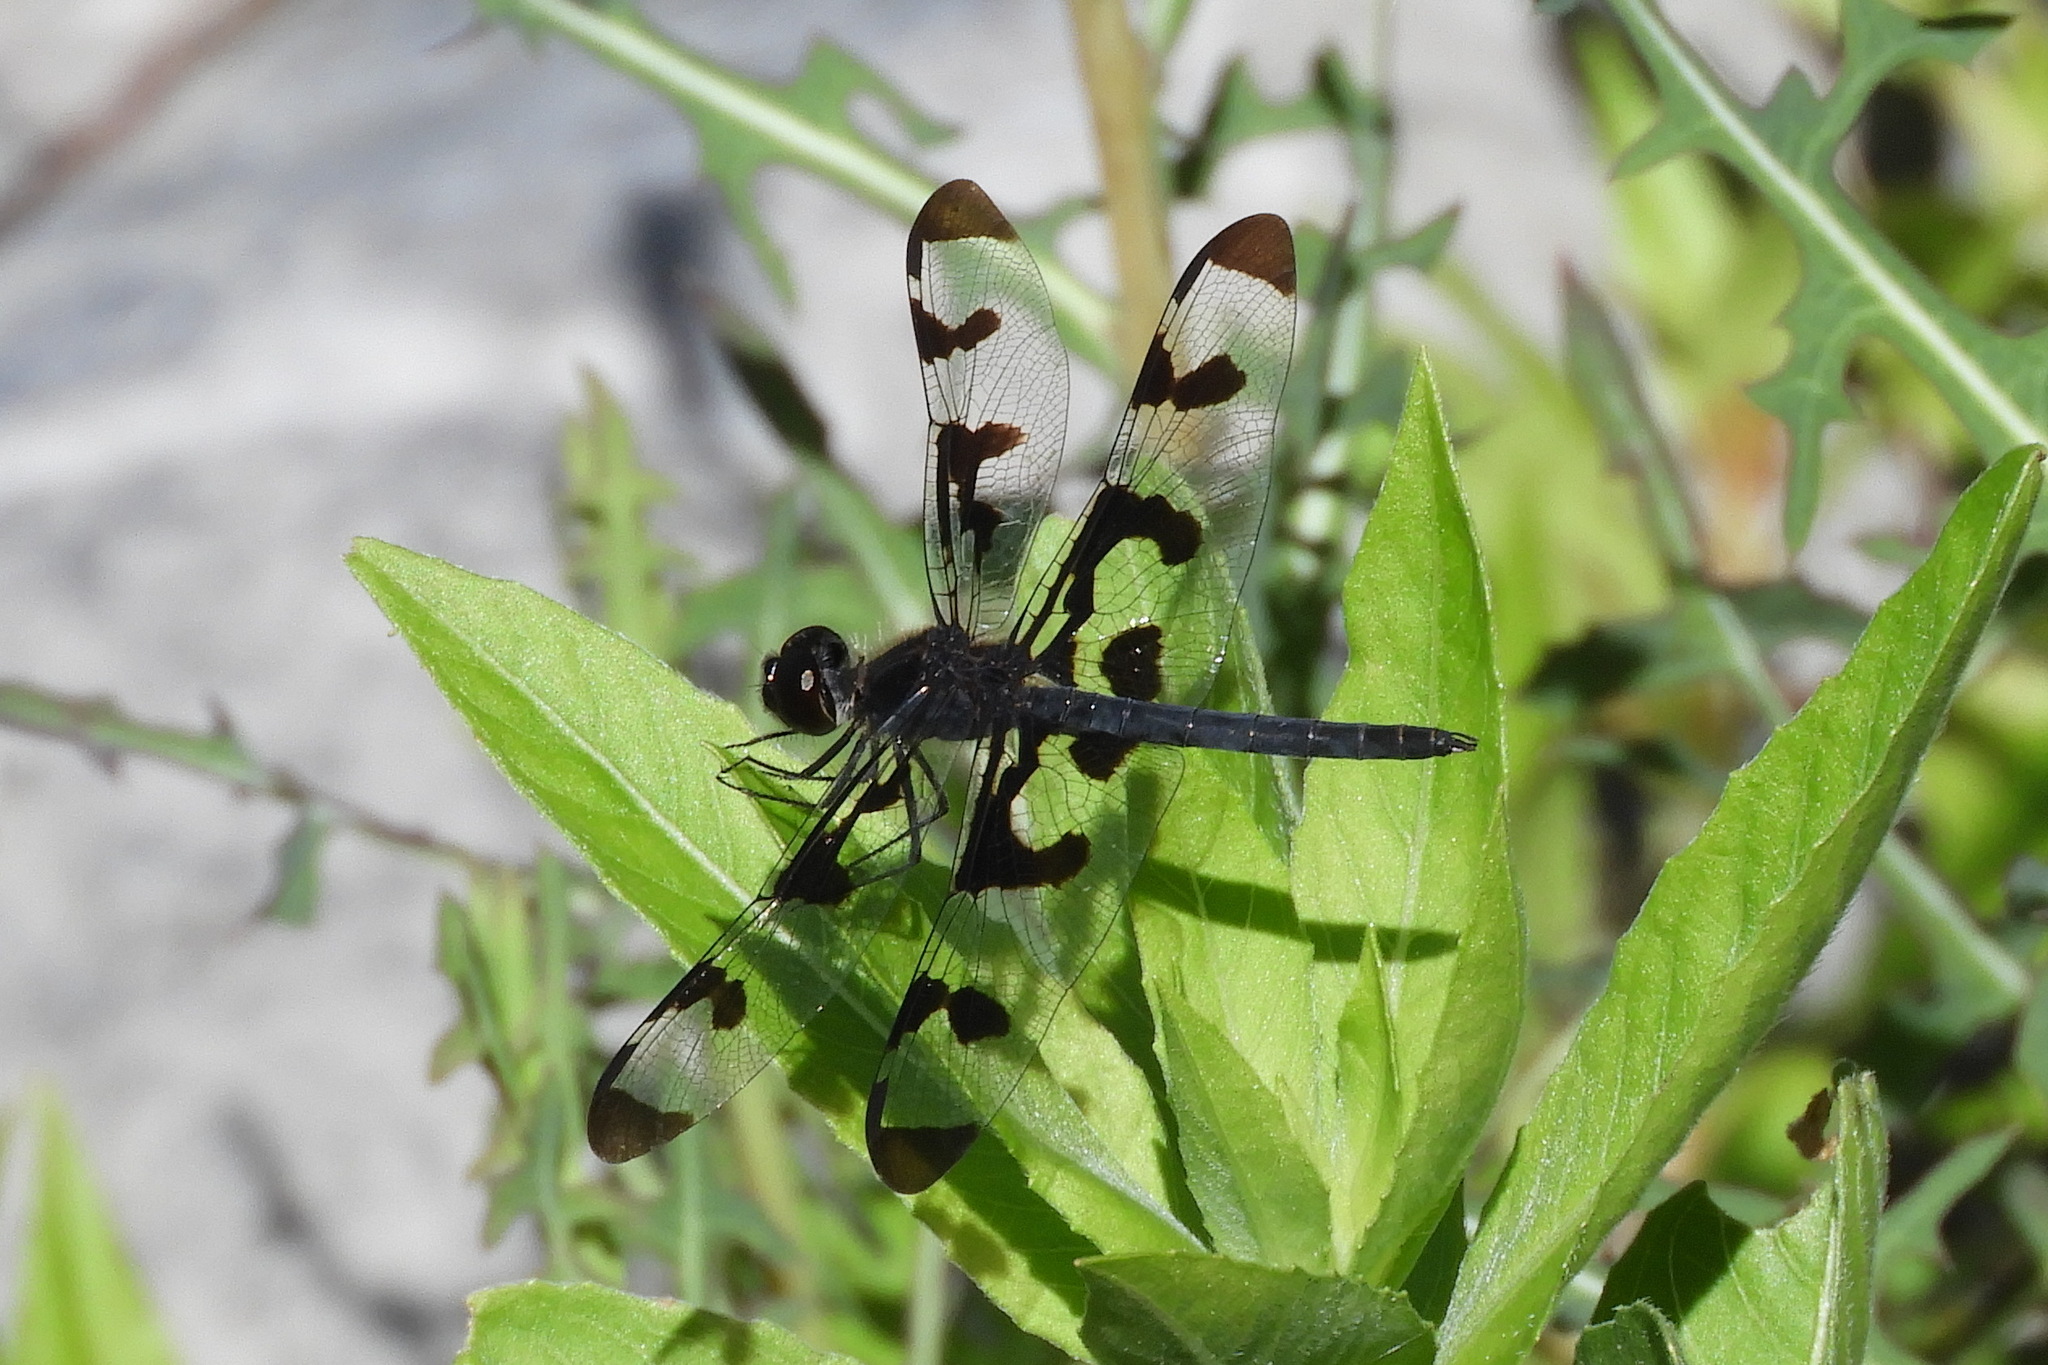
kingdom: Animalia
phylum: Arthropoda
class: Insecta
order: Odonata
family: Libellulidae
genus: Celithemis
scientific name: Celithemis fasciata
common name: Banded pennant
